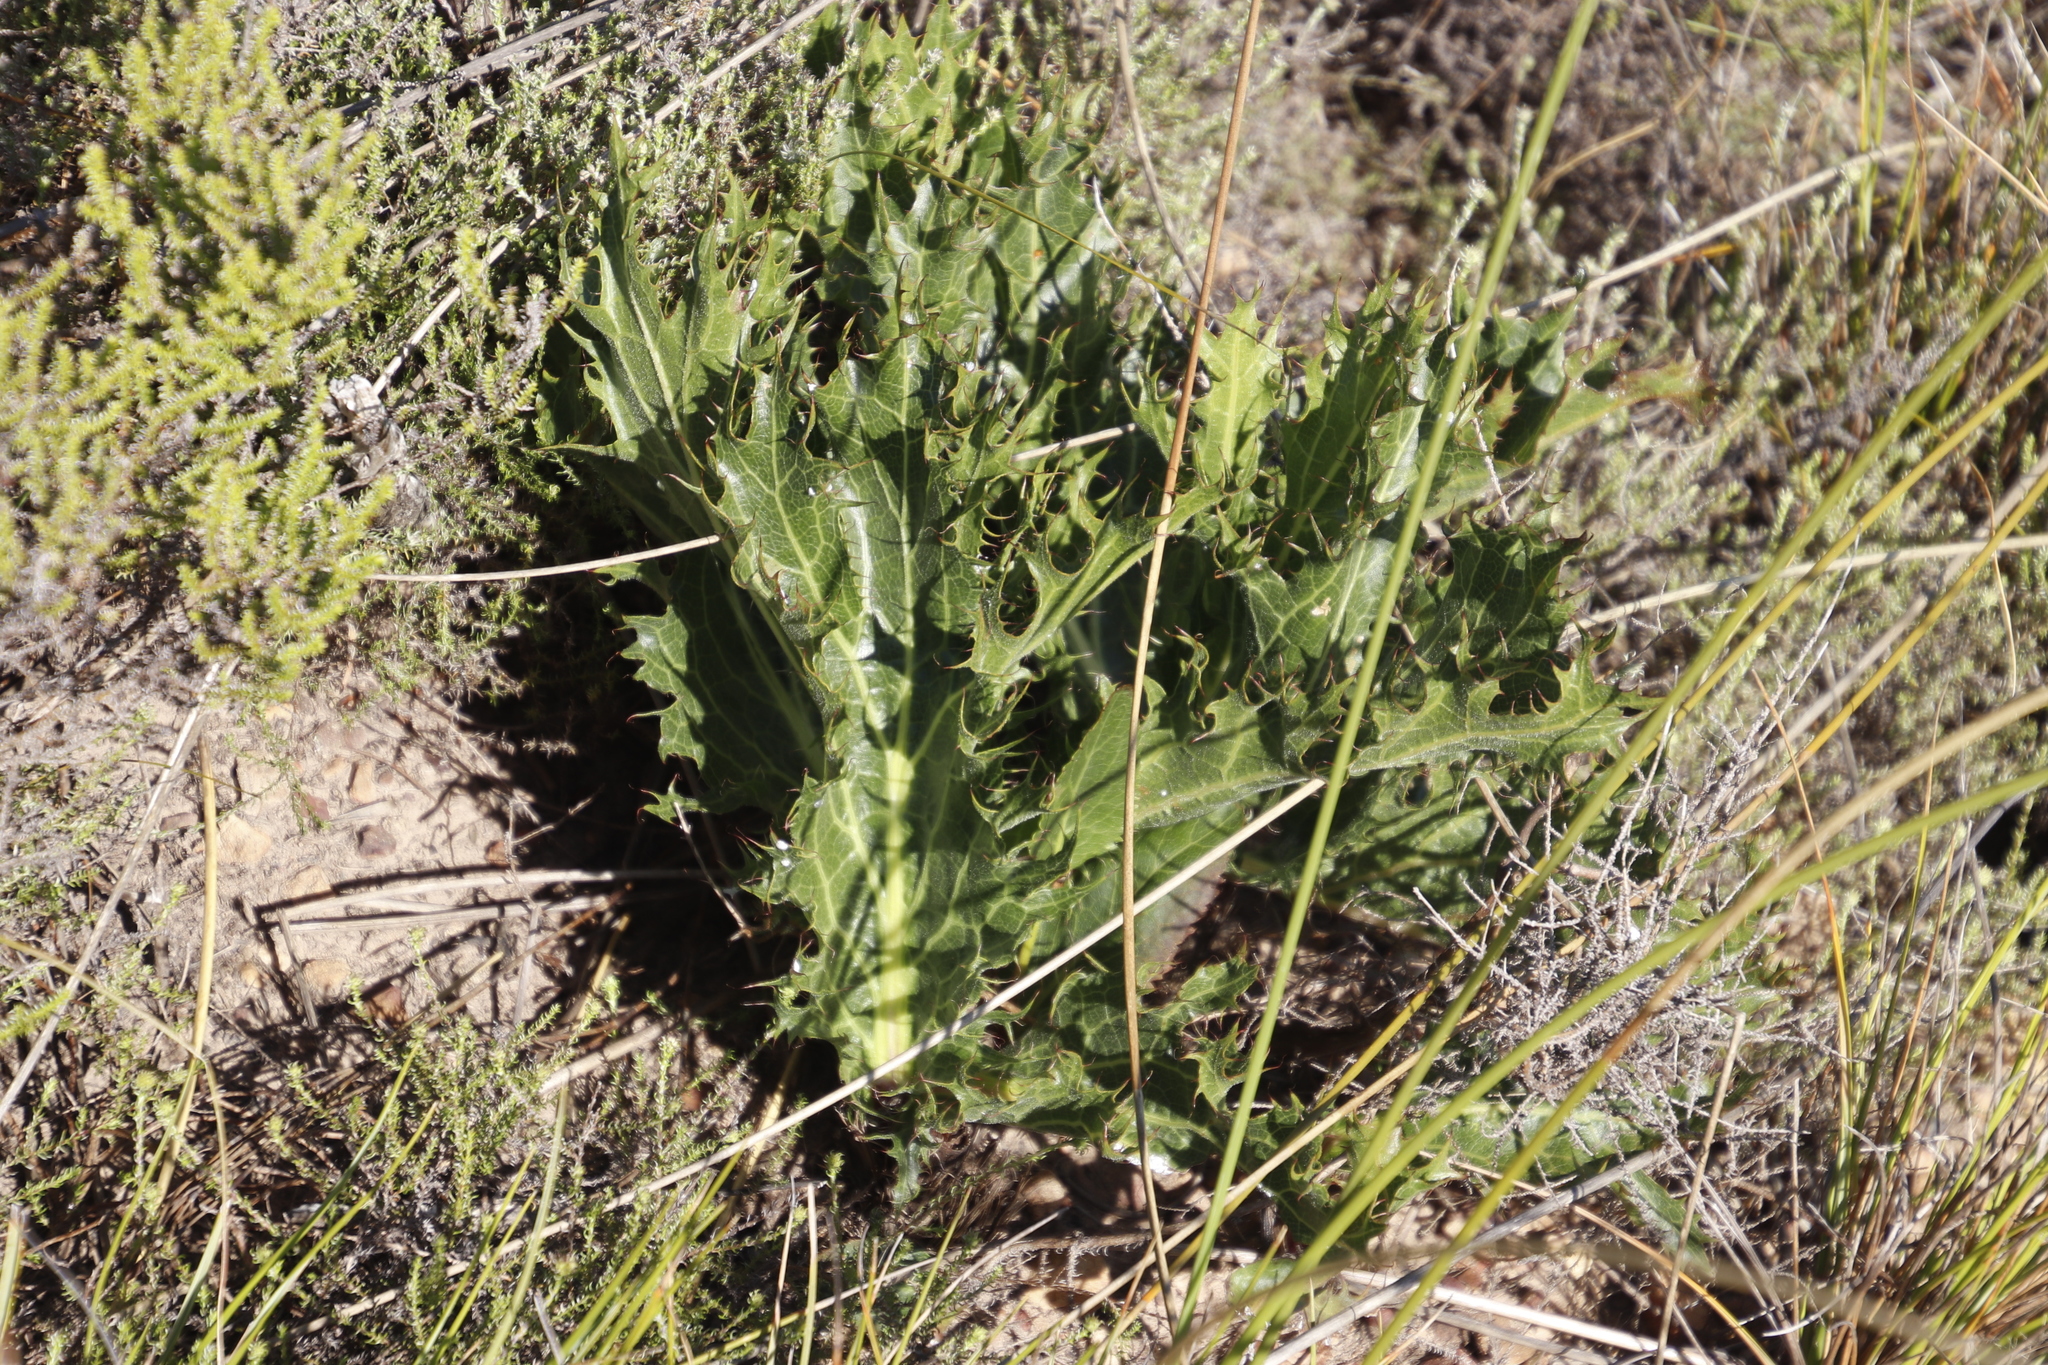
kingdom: Plantae
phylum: Tracheophyta
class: Magnoliopsida
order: Apiales
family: Apiaceae
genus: Lichtensteinia
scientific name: Lichtensteinia lacera
